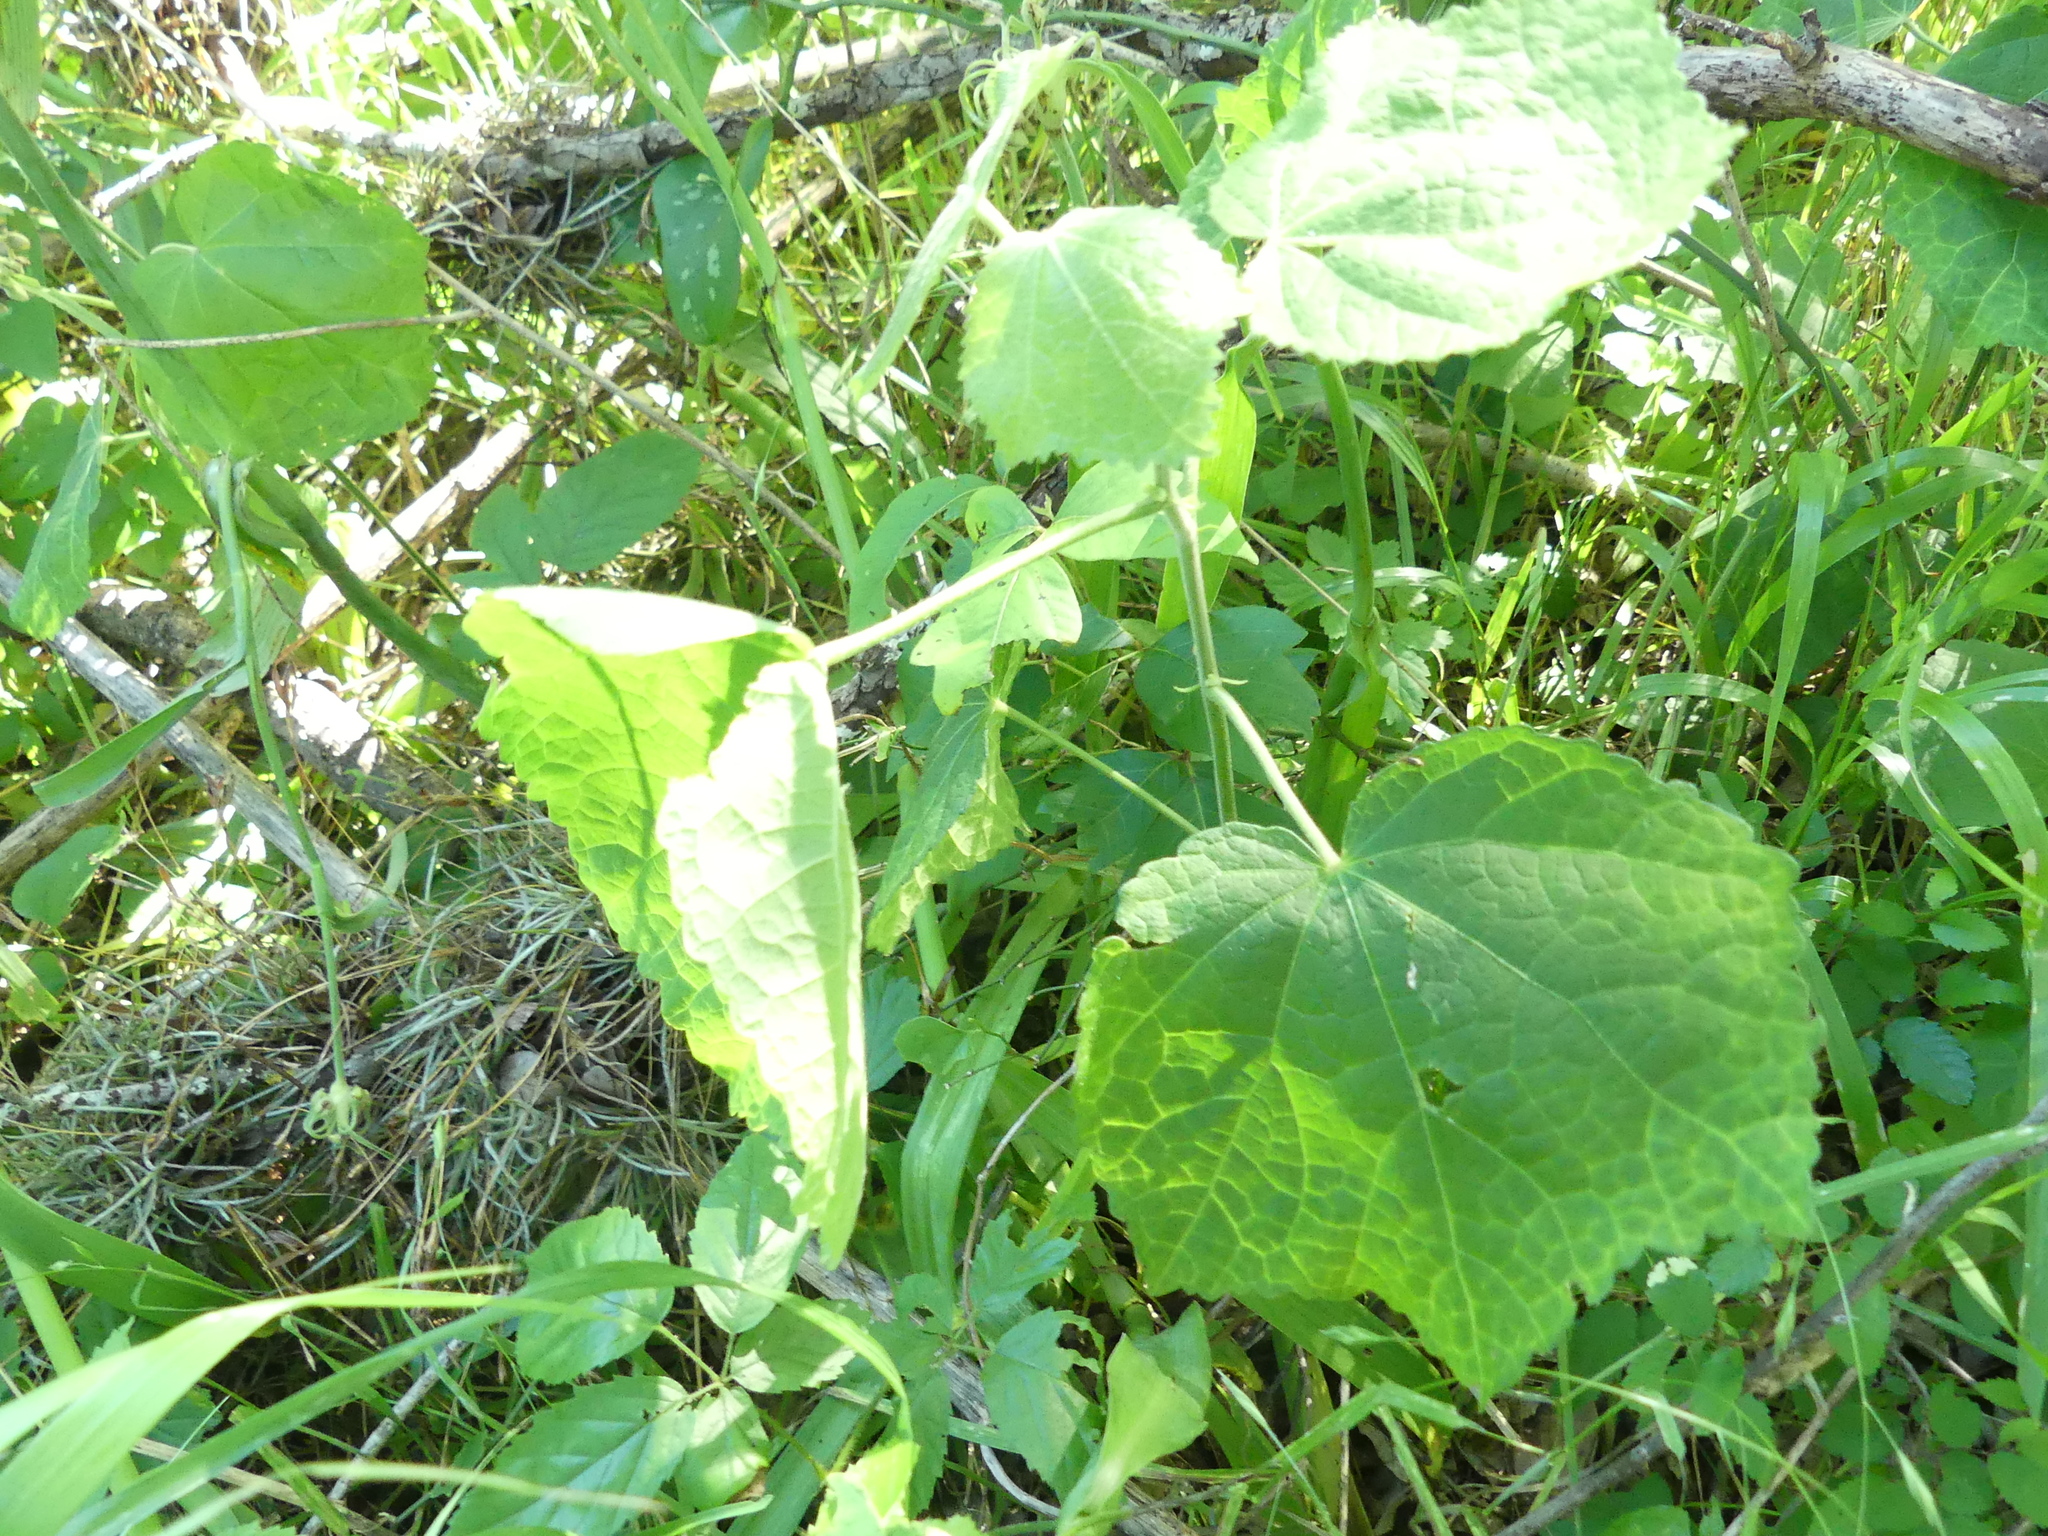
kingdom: Plantae
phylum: Tracheophyta
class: Magnoliopsida
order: Malvales
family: Malvaceae
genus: Malvaviscus
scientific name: Malvaviscus arboreus
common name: Wax mallow
